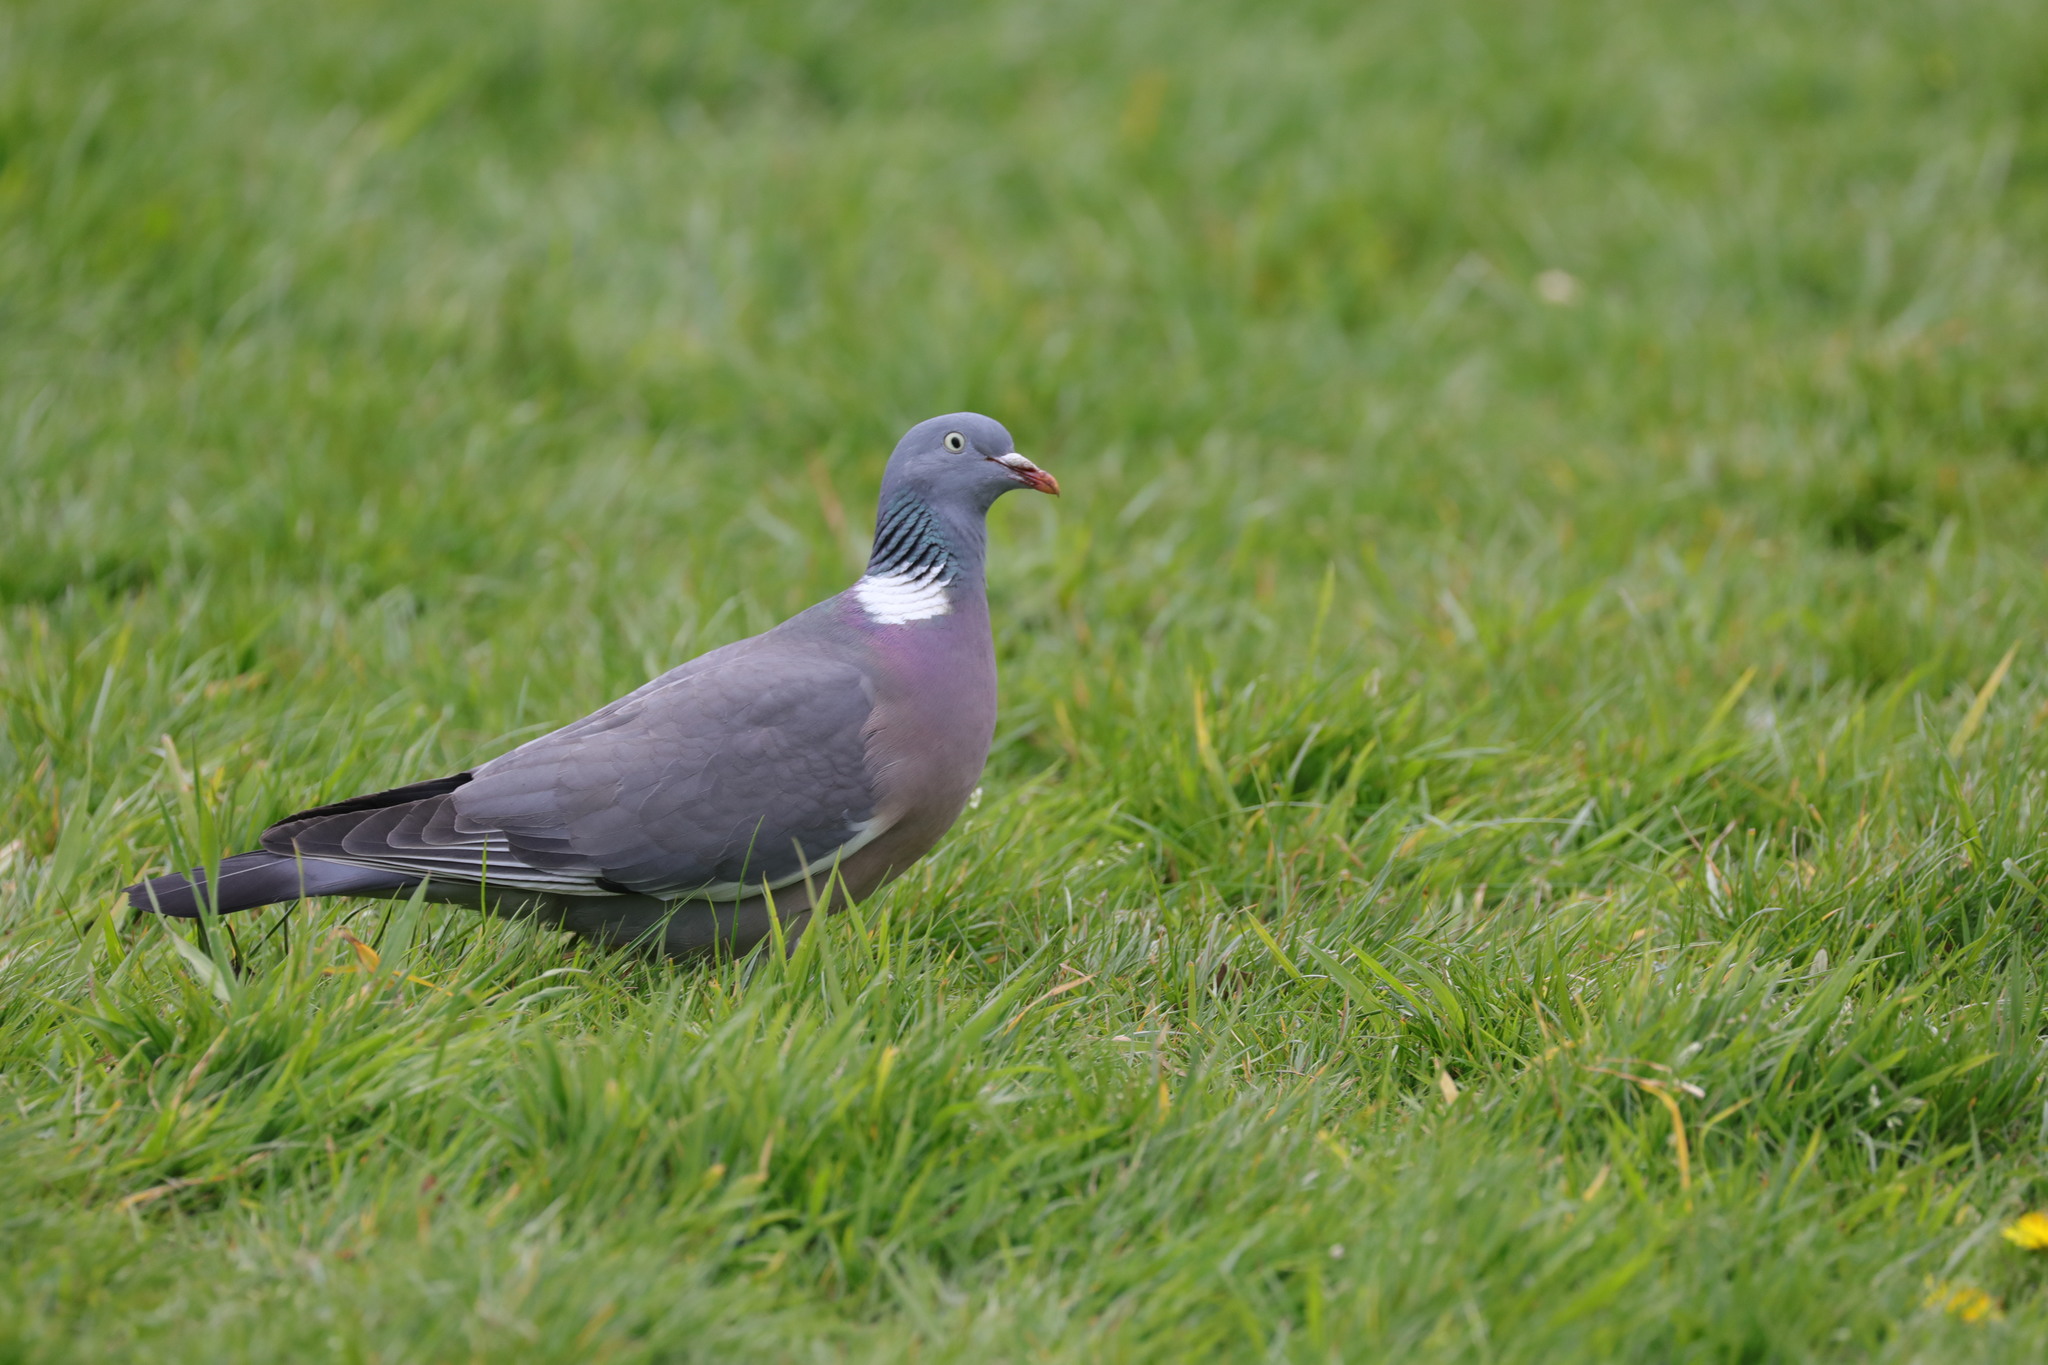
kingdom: Animalia
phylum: Chordata
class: Aves
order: Columbiformes
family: Columbidae
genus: Columba
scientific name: Columba palumbus
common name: Common wood pigeon
